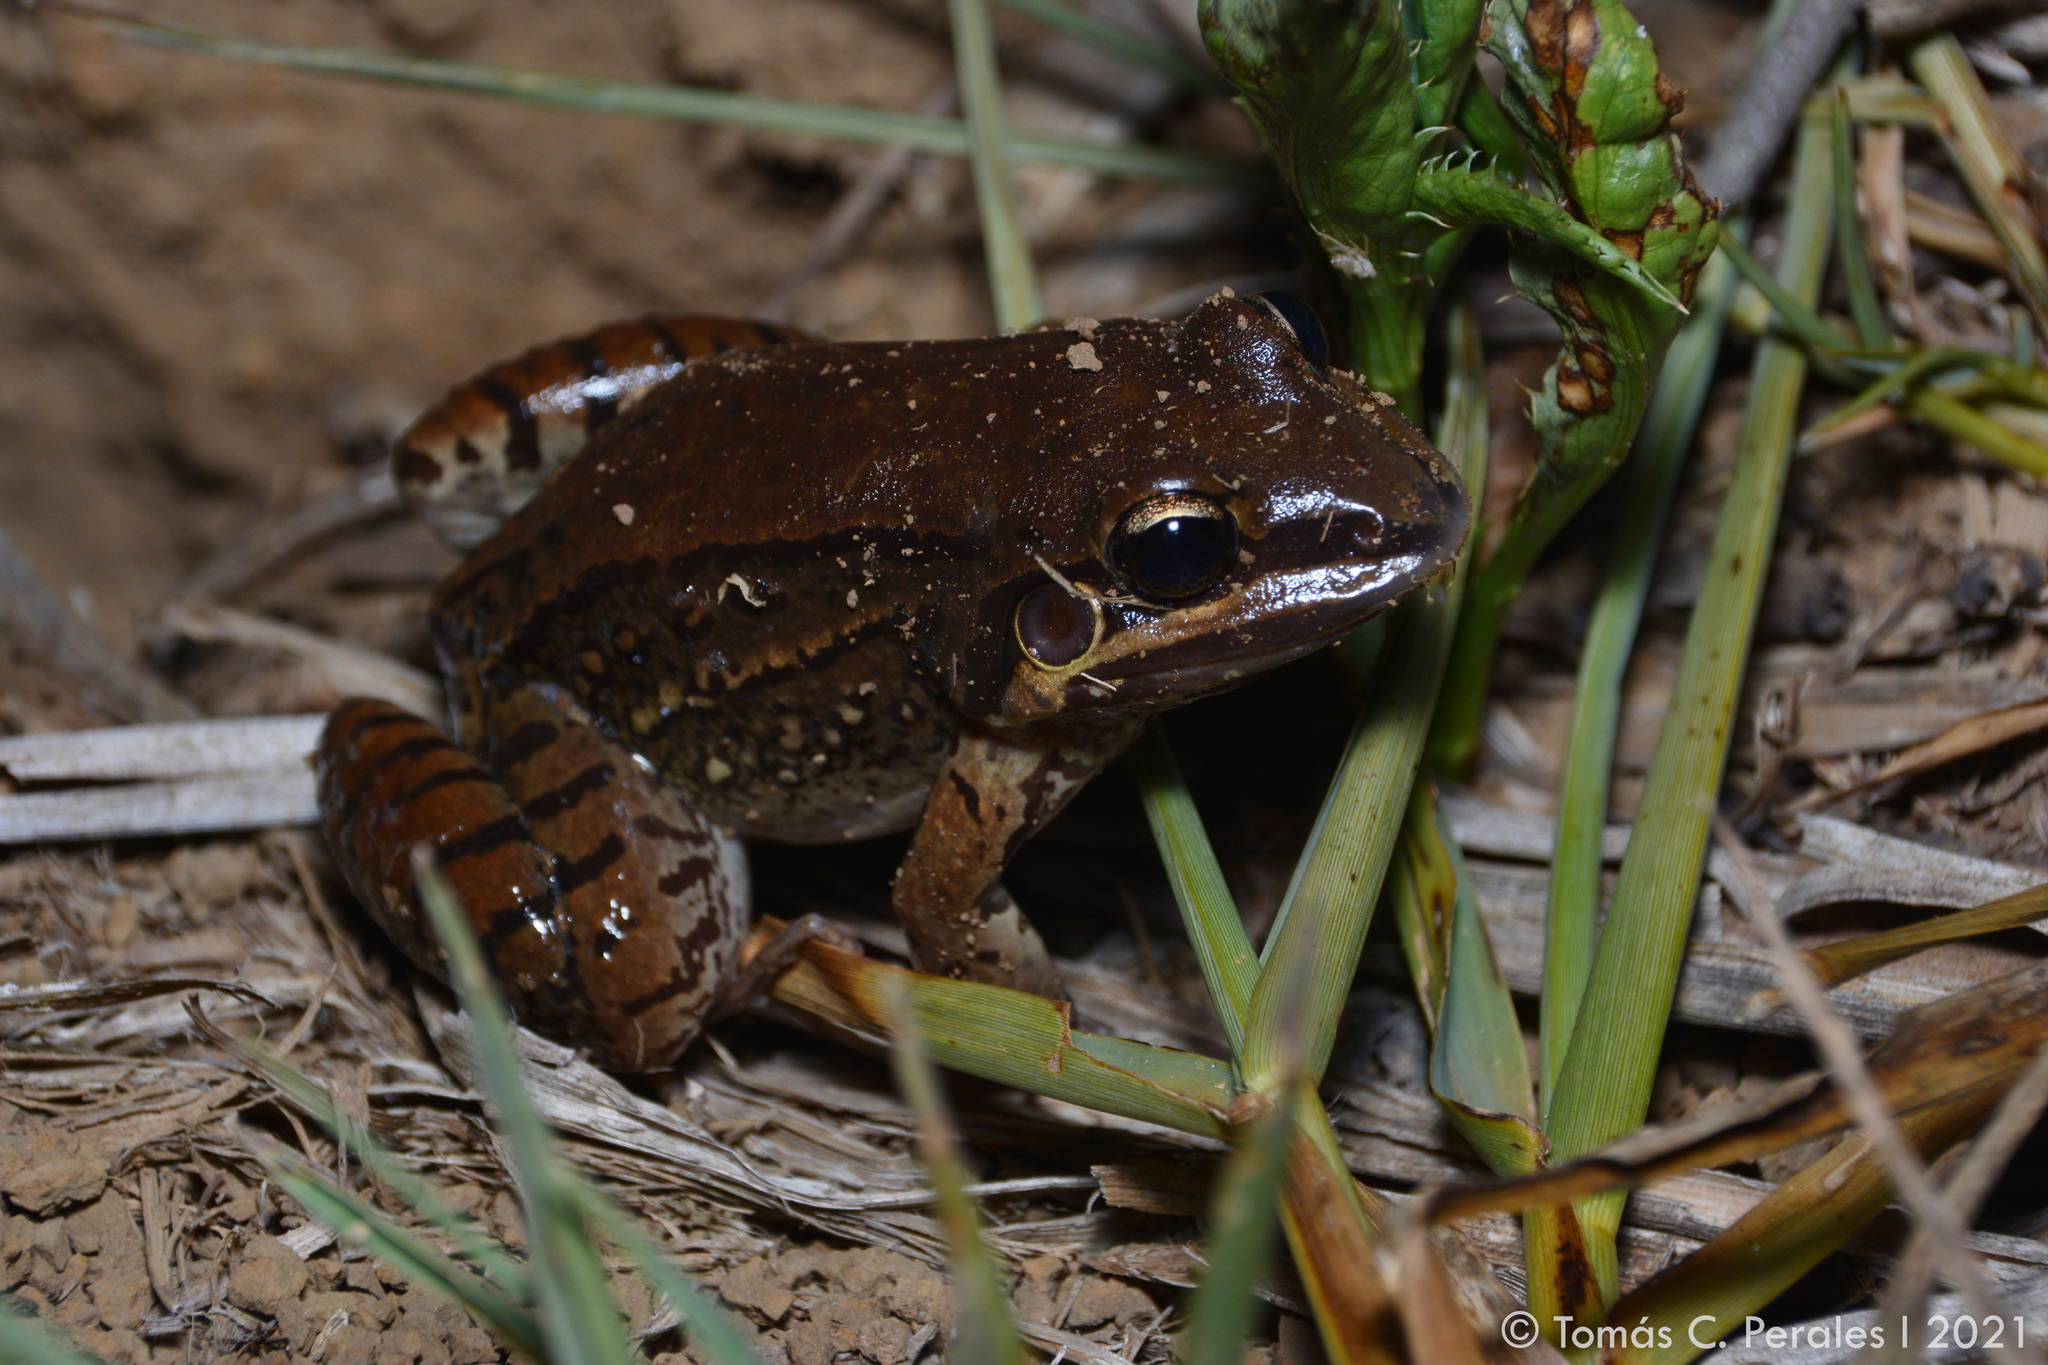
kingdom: Animalia
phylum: Chordata
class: Amphibia
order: Anura
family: Leptodactylidae
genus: Leptodactylus
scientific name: Leptodactylus mystacinus
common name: Moustached frog
